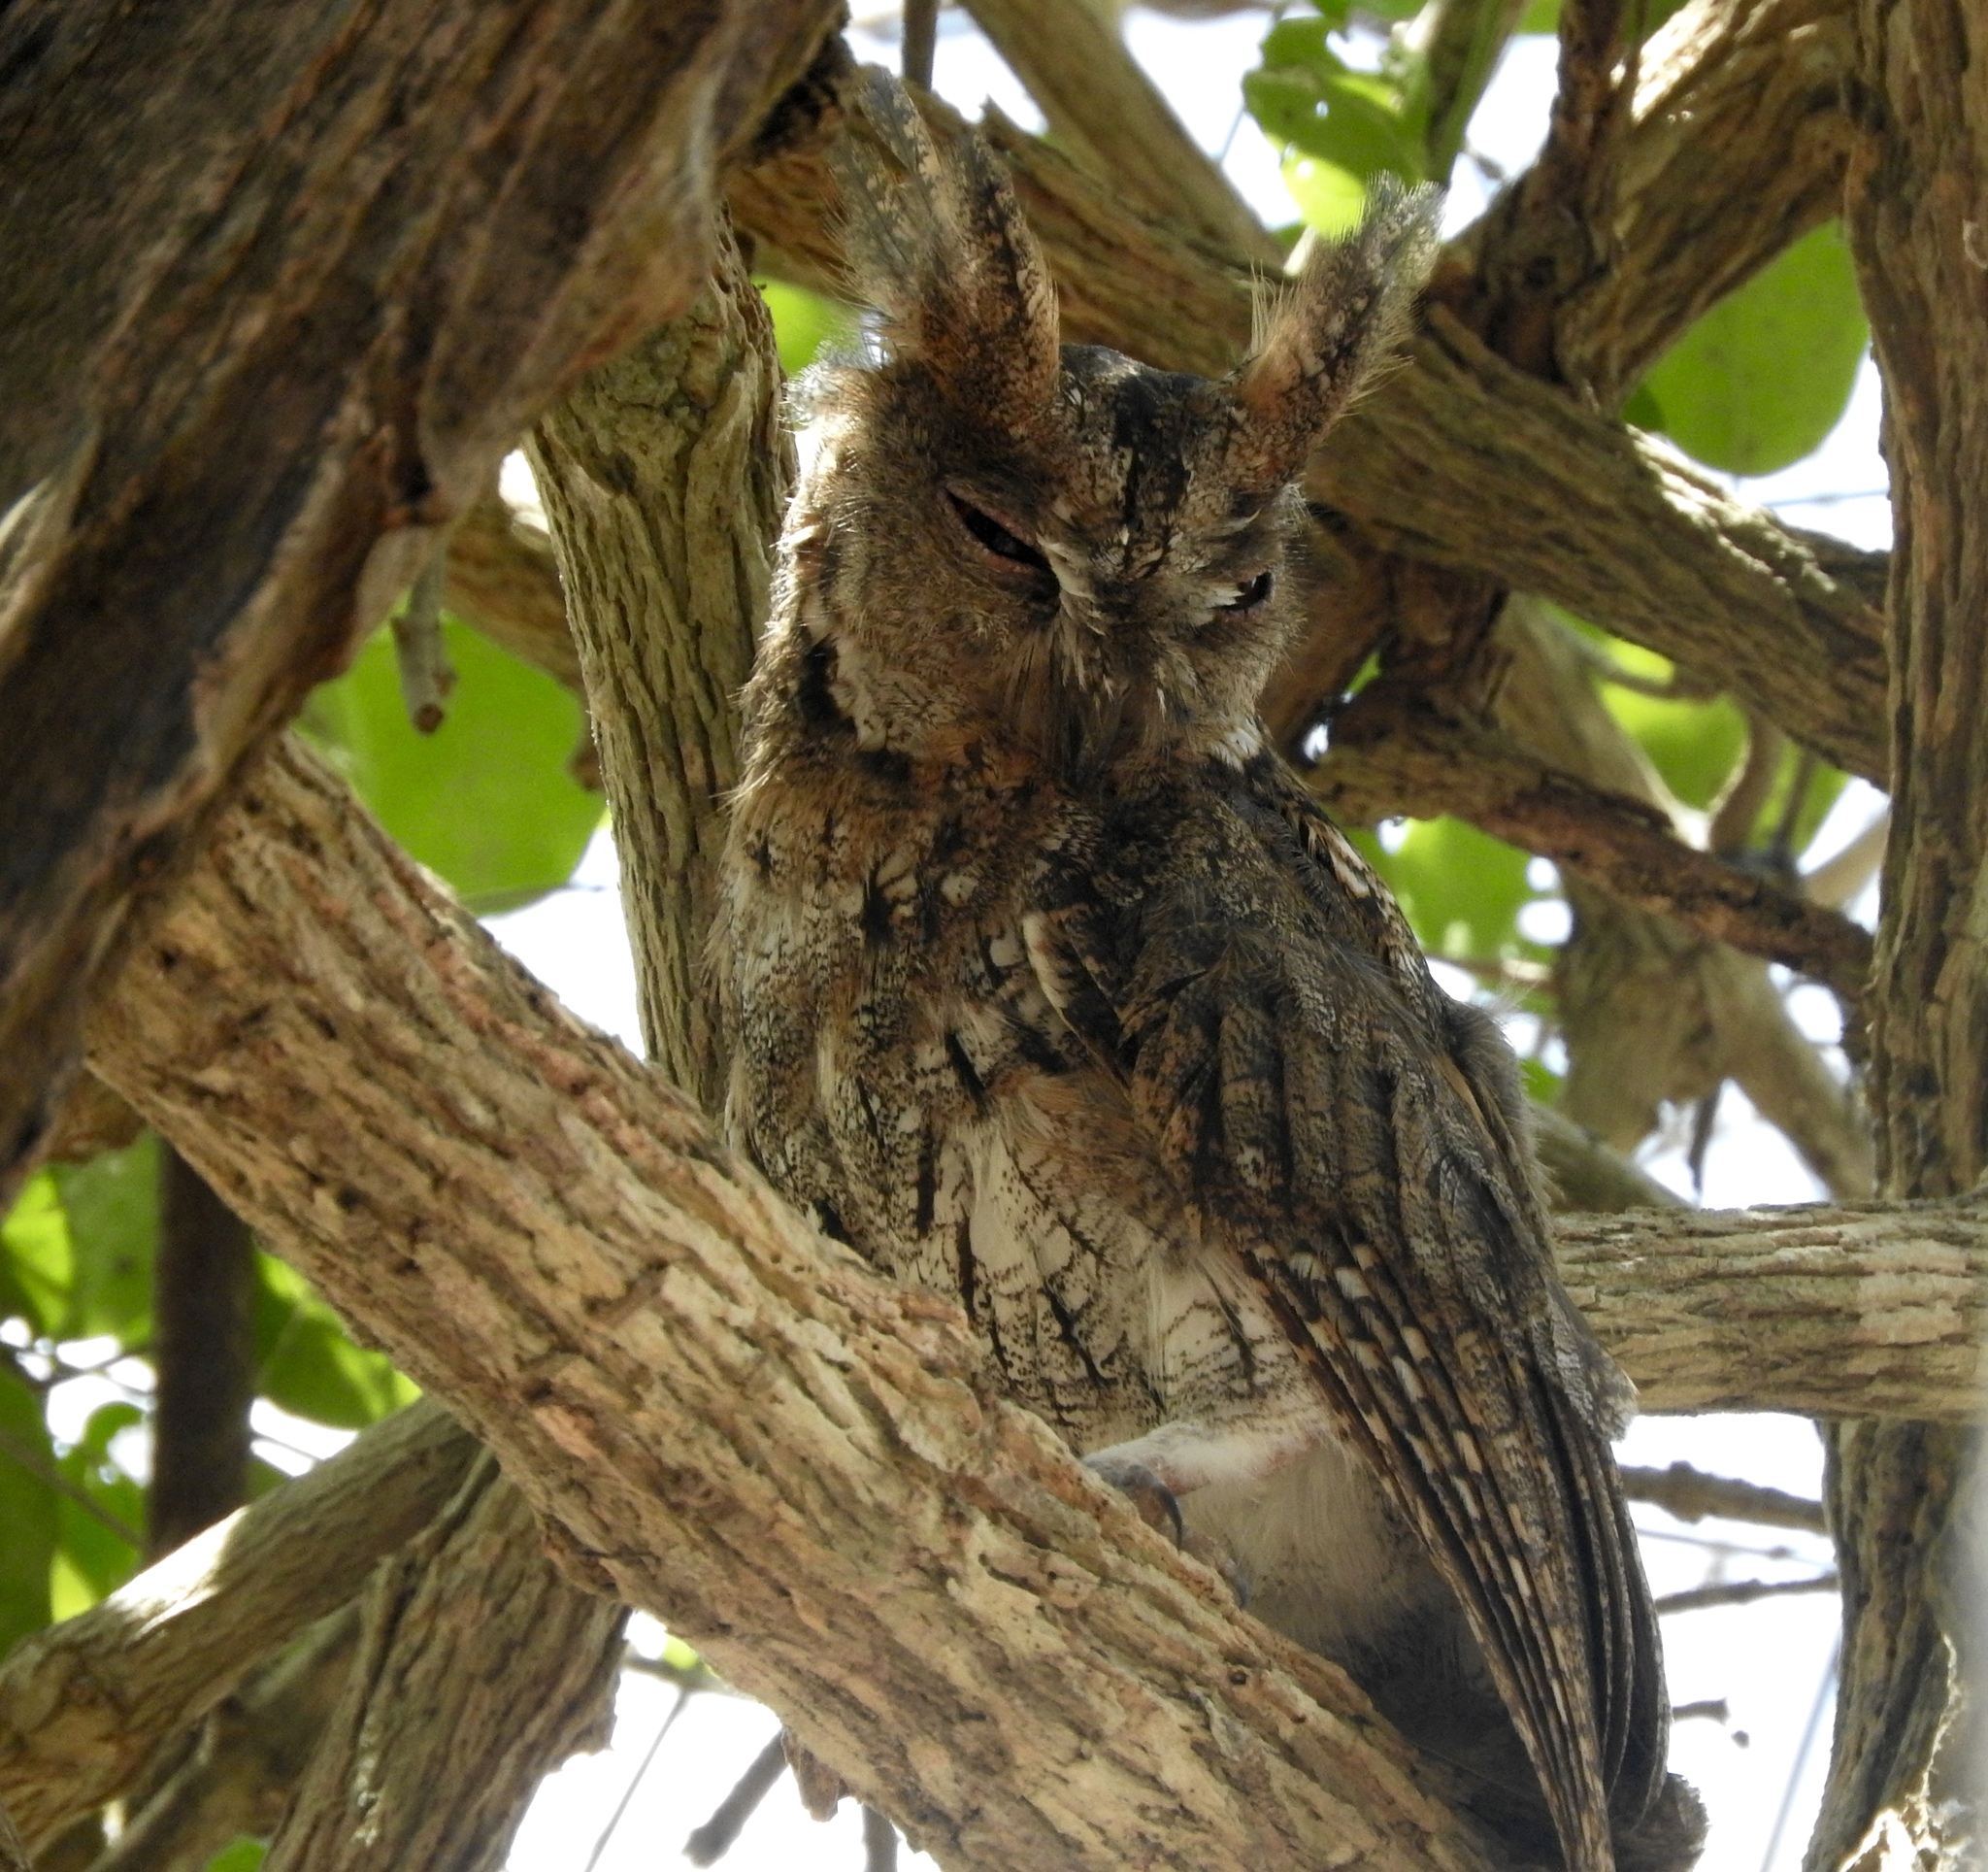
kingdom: Animalia
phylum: Chordata
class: Aves
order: Strigiformes
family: Strigidae
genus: Otus
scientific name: Otus silvicola
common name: Wallace's scops owl
